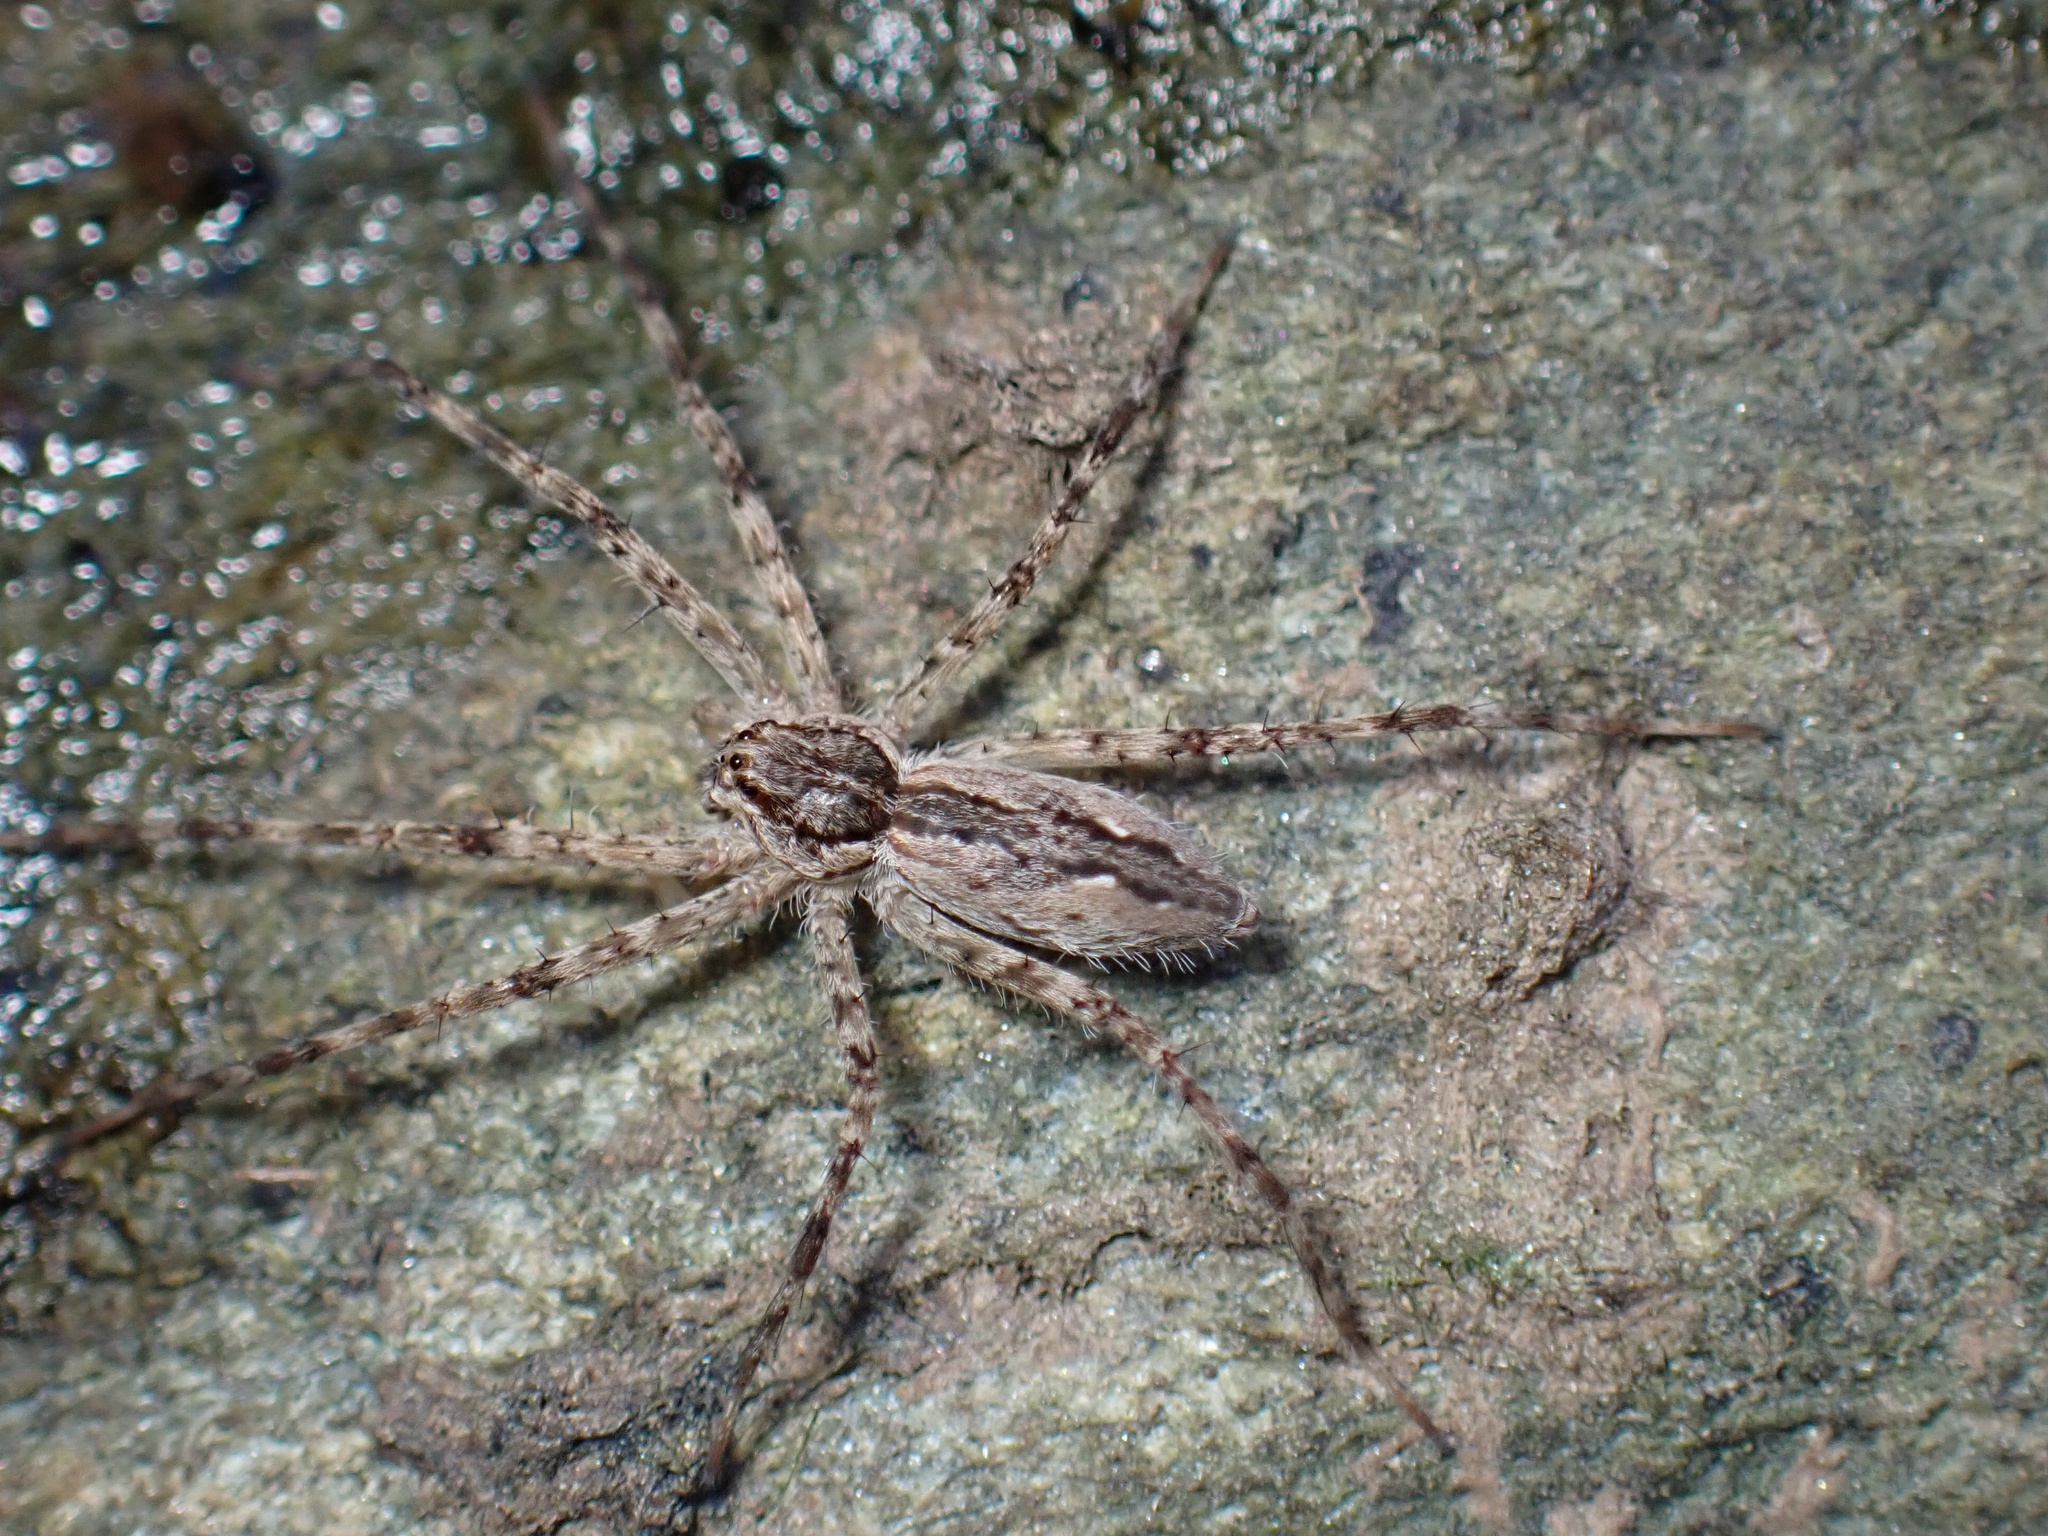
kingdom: Animalia
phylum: Arthropoda
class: Arachnida
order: Araneae
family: Pisauridae
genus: Megadolomedes
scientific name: Megadolomedes trux
